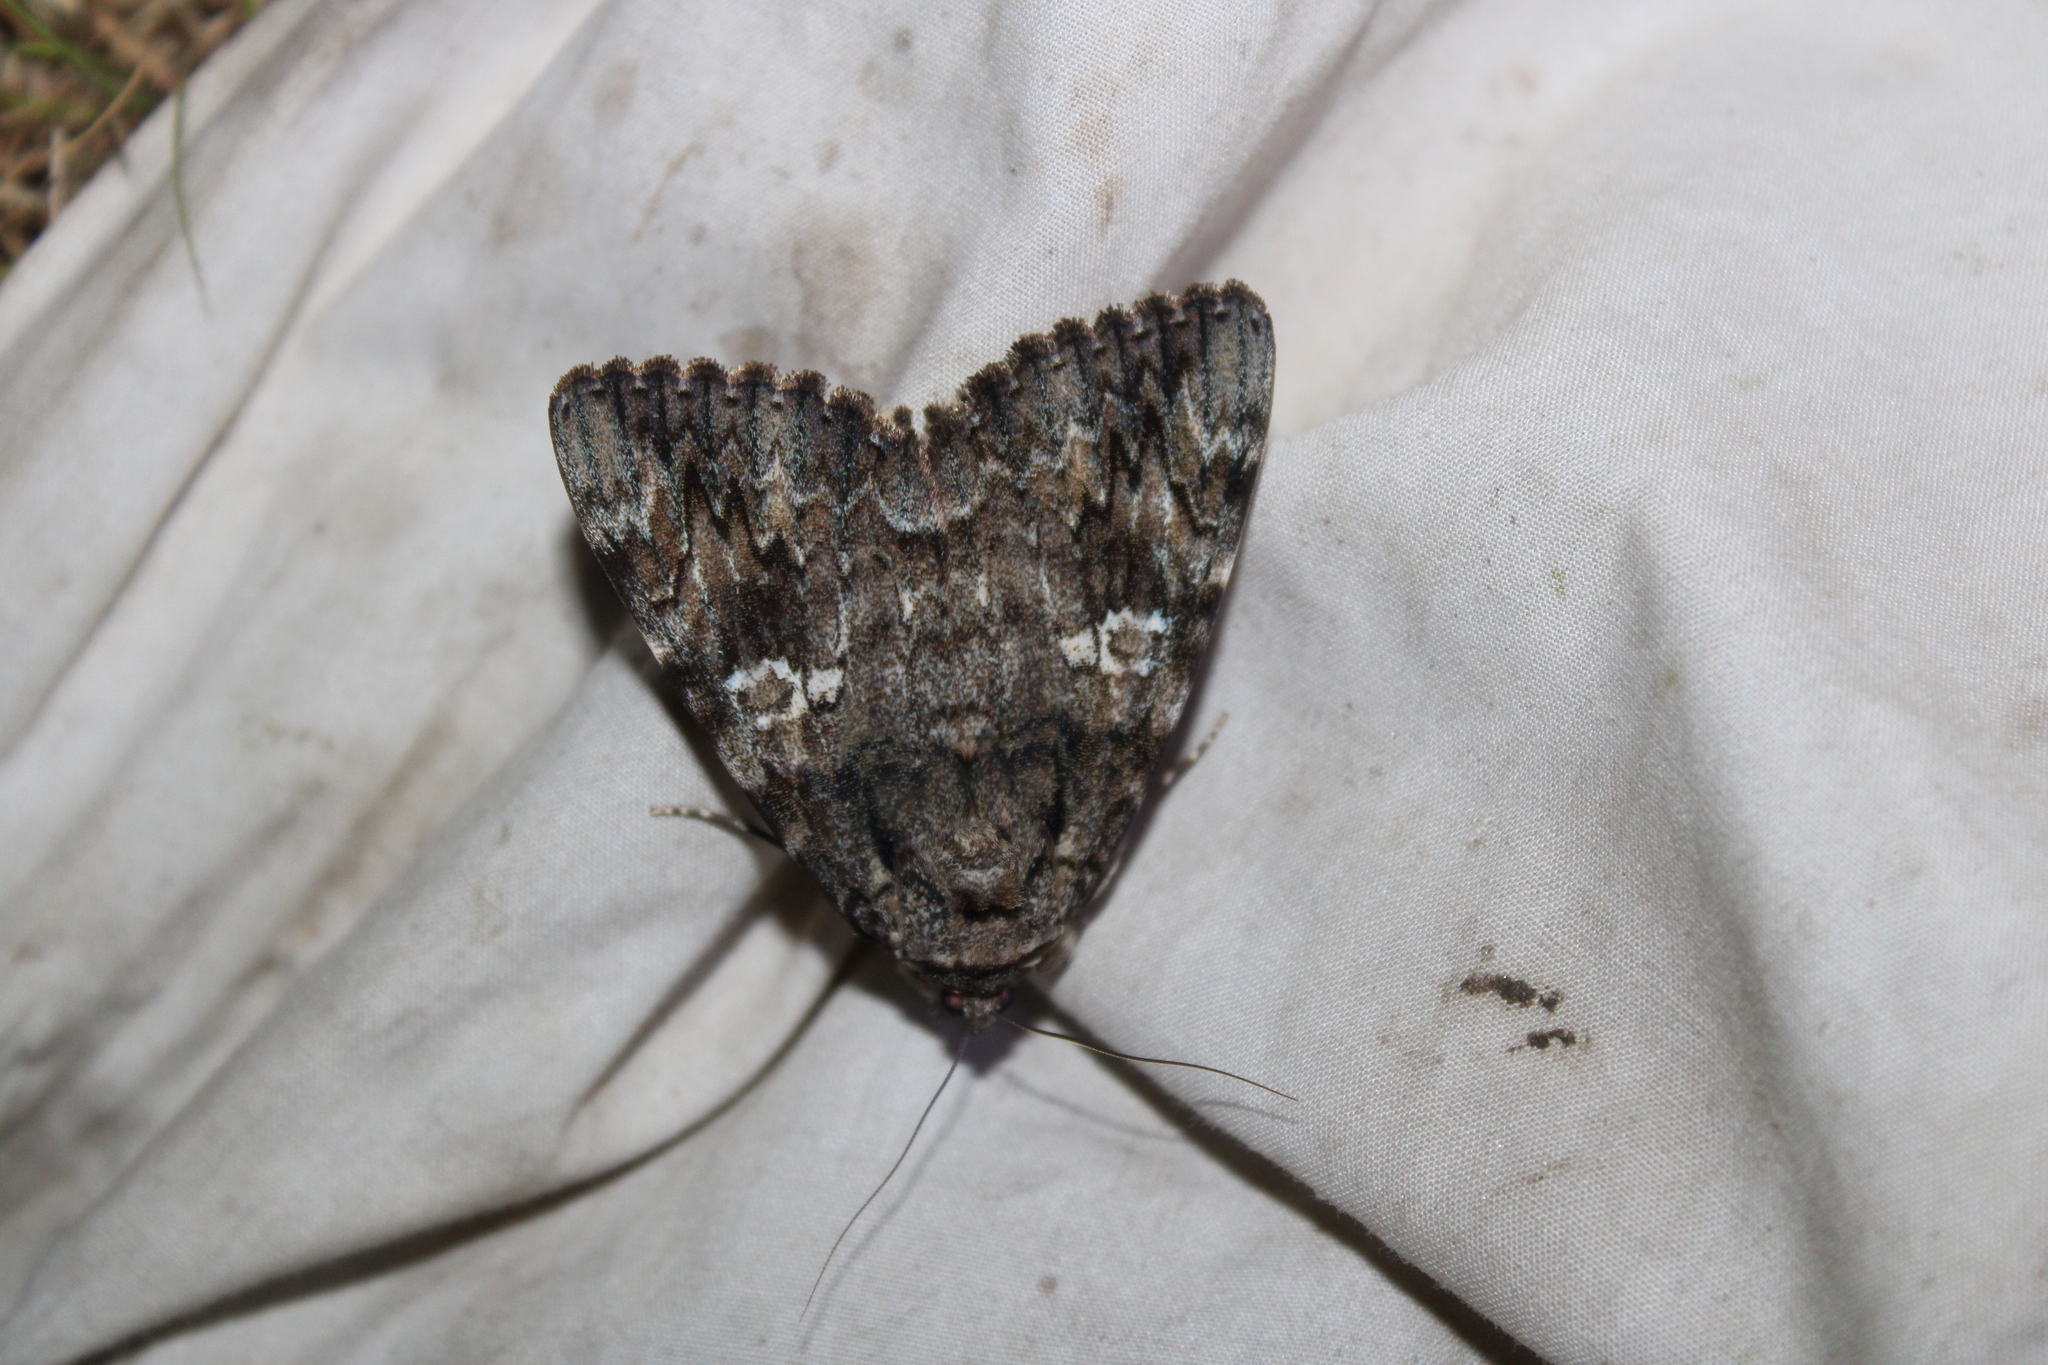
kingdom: Animalia
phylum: Arthropoda
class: Insecta
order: Lepidoptera
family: Erebidae
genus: Catocala
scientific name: Catocala ilia
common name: Ilia underwing
